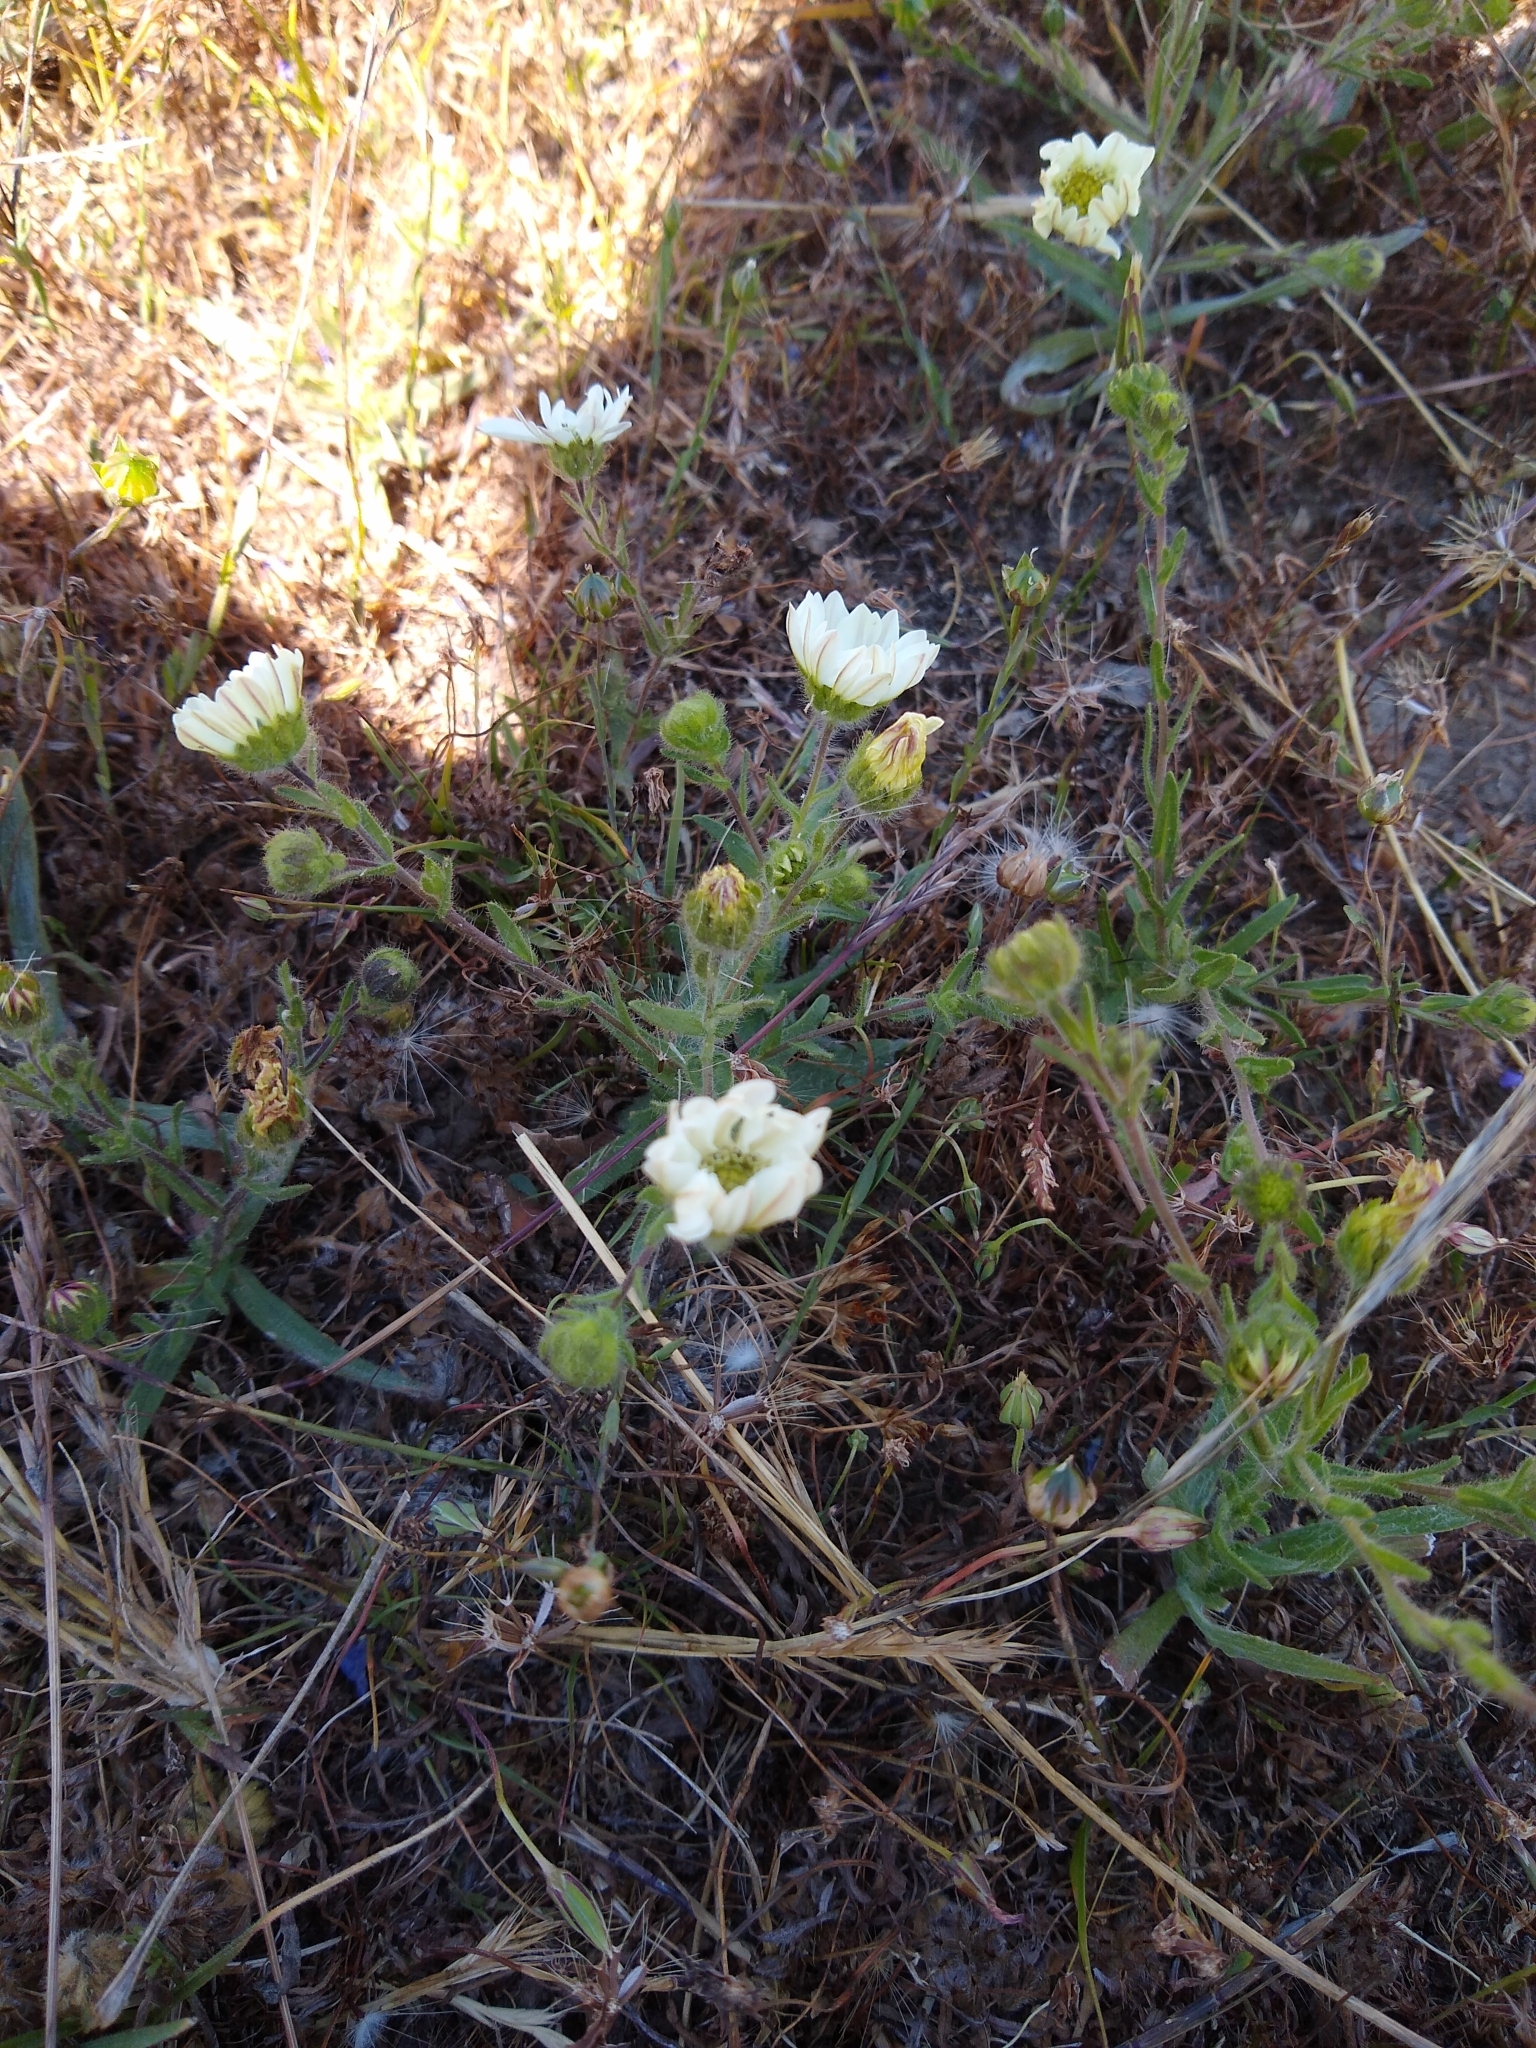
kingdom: Plantae
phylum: Tracheophyta
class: Magnoliopsida
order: Asterales
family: Asteraceae
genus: Hemizonia
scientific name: Hemizonia congesta
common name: Hayfield tarweed
